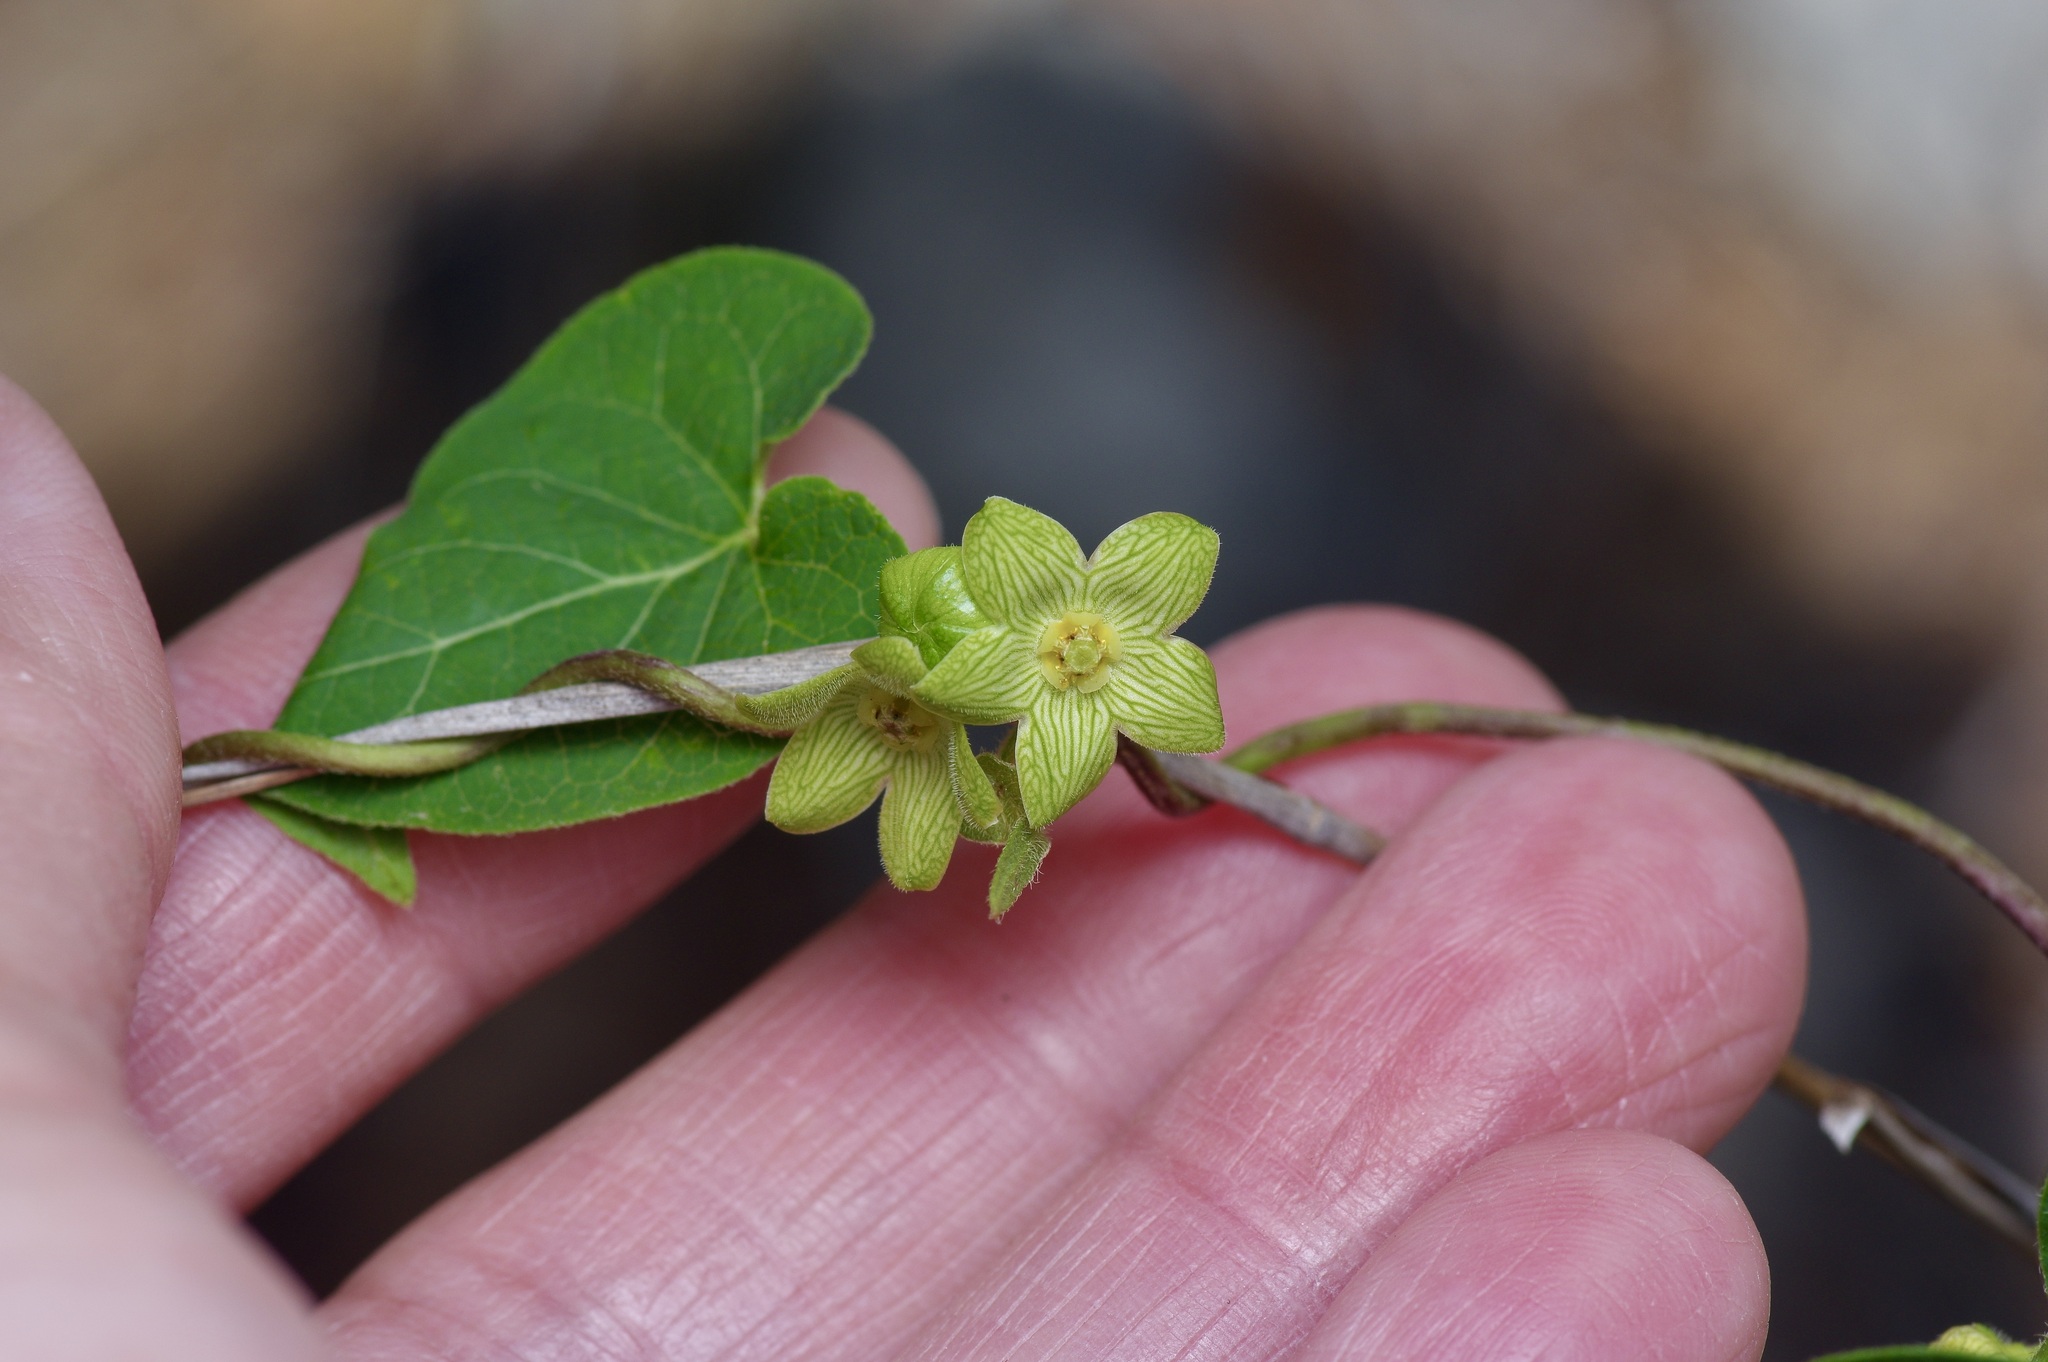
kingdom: Plantae
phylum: Tracheophyta
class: Magnoliopsida
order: Gentianales
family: Apocynaceae
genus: Matelea
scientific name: Matelea edwardsensis
